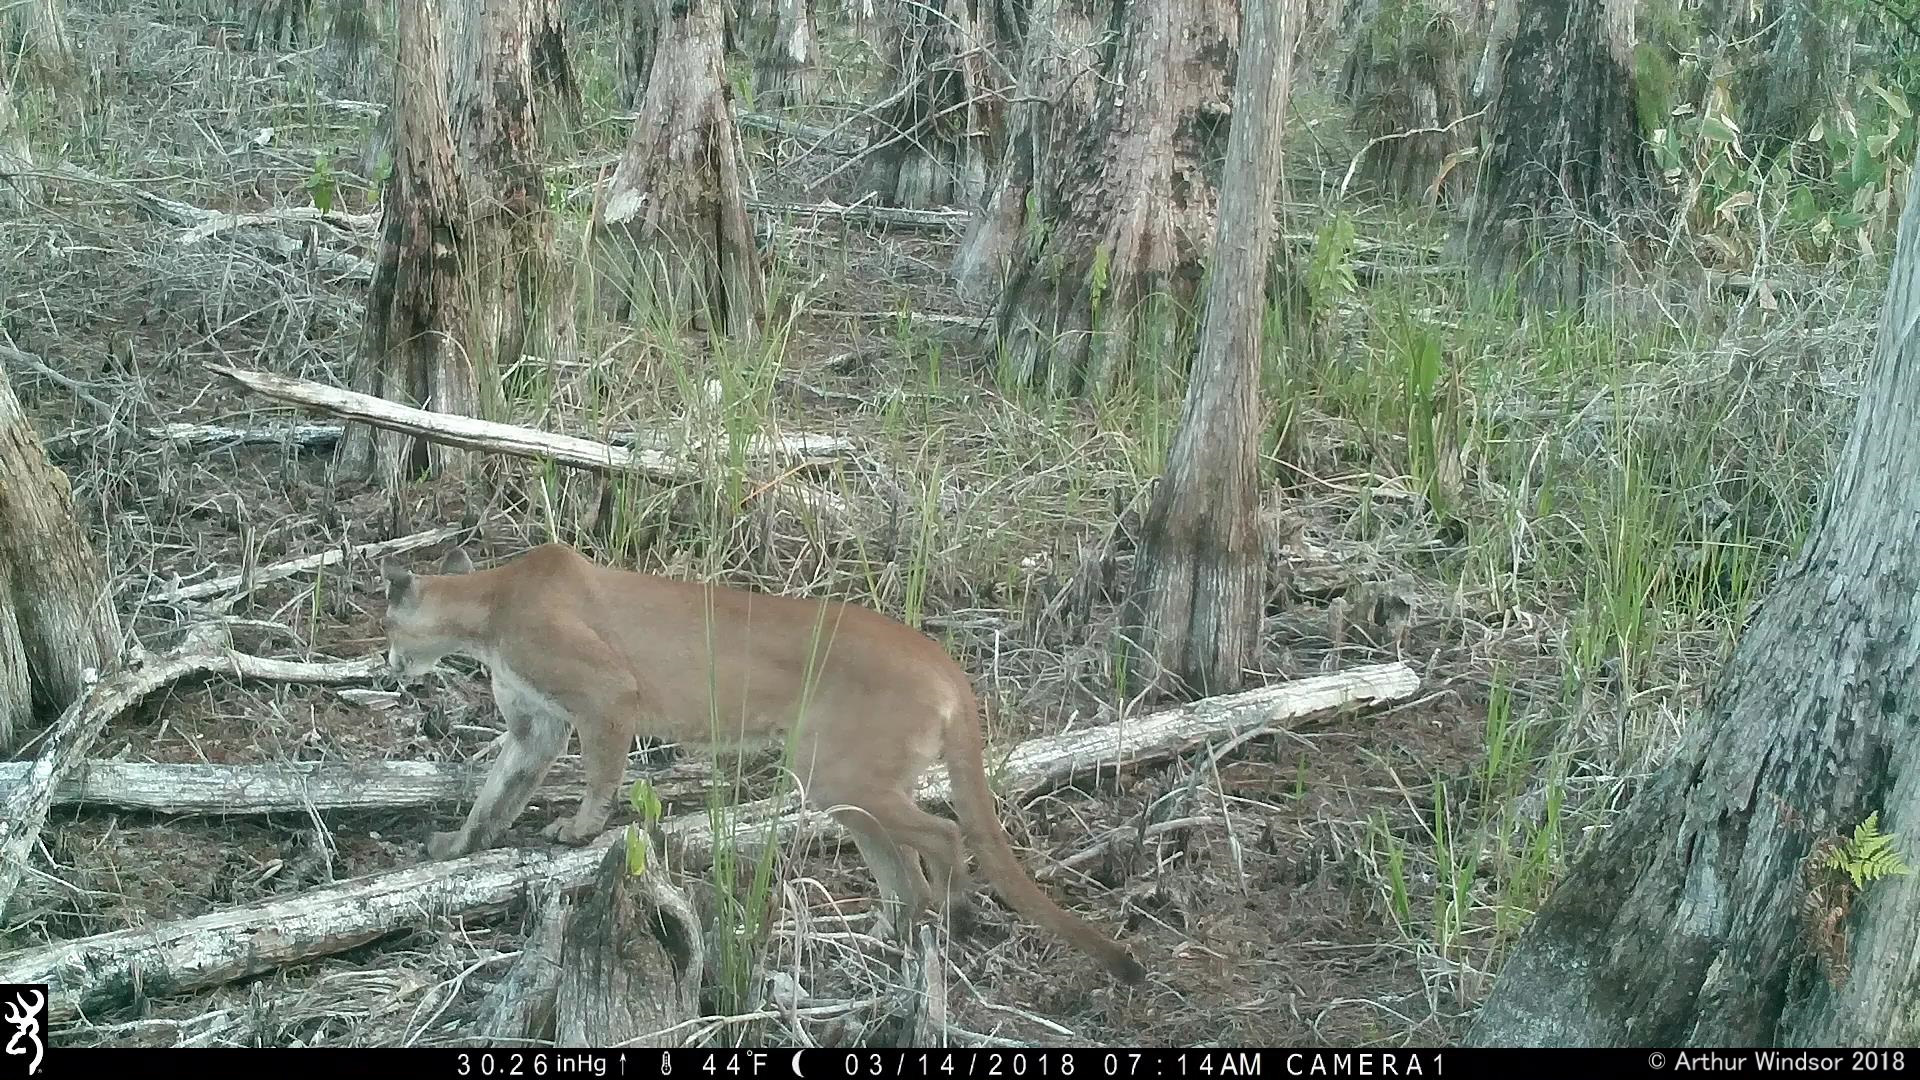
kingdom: Animalia
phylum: Chordata
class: Mammalia
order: Carnivora
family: Felidae
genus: Puma
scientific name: Puma concolor
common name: Puma
